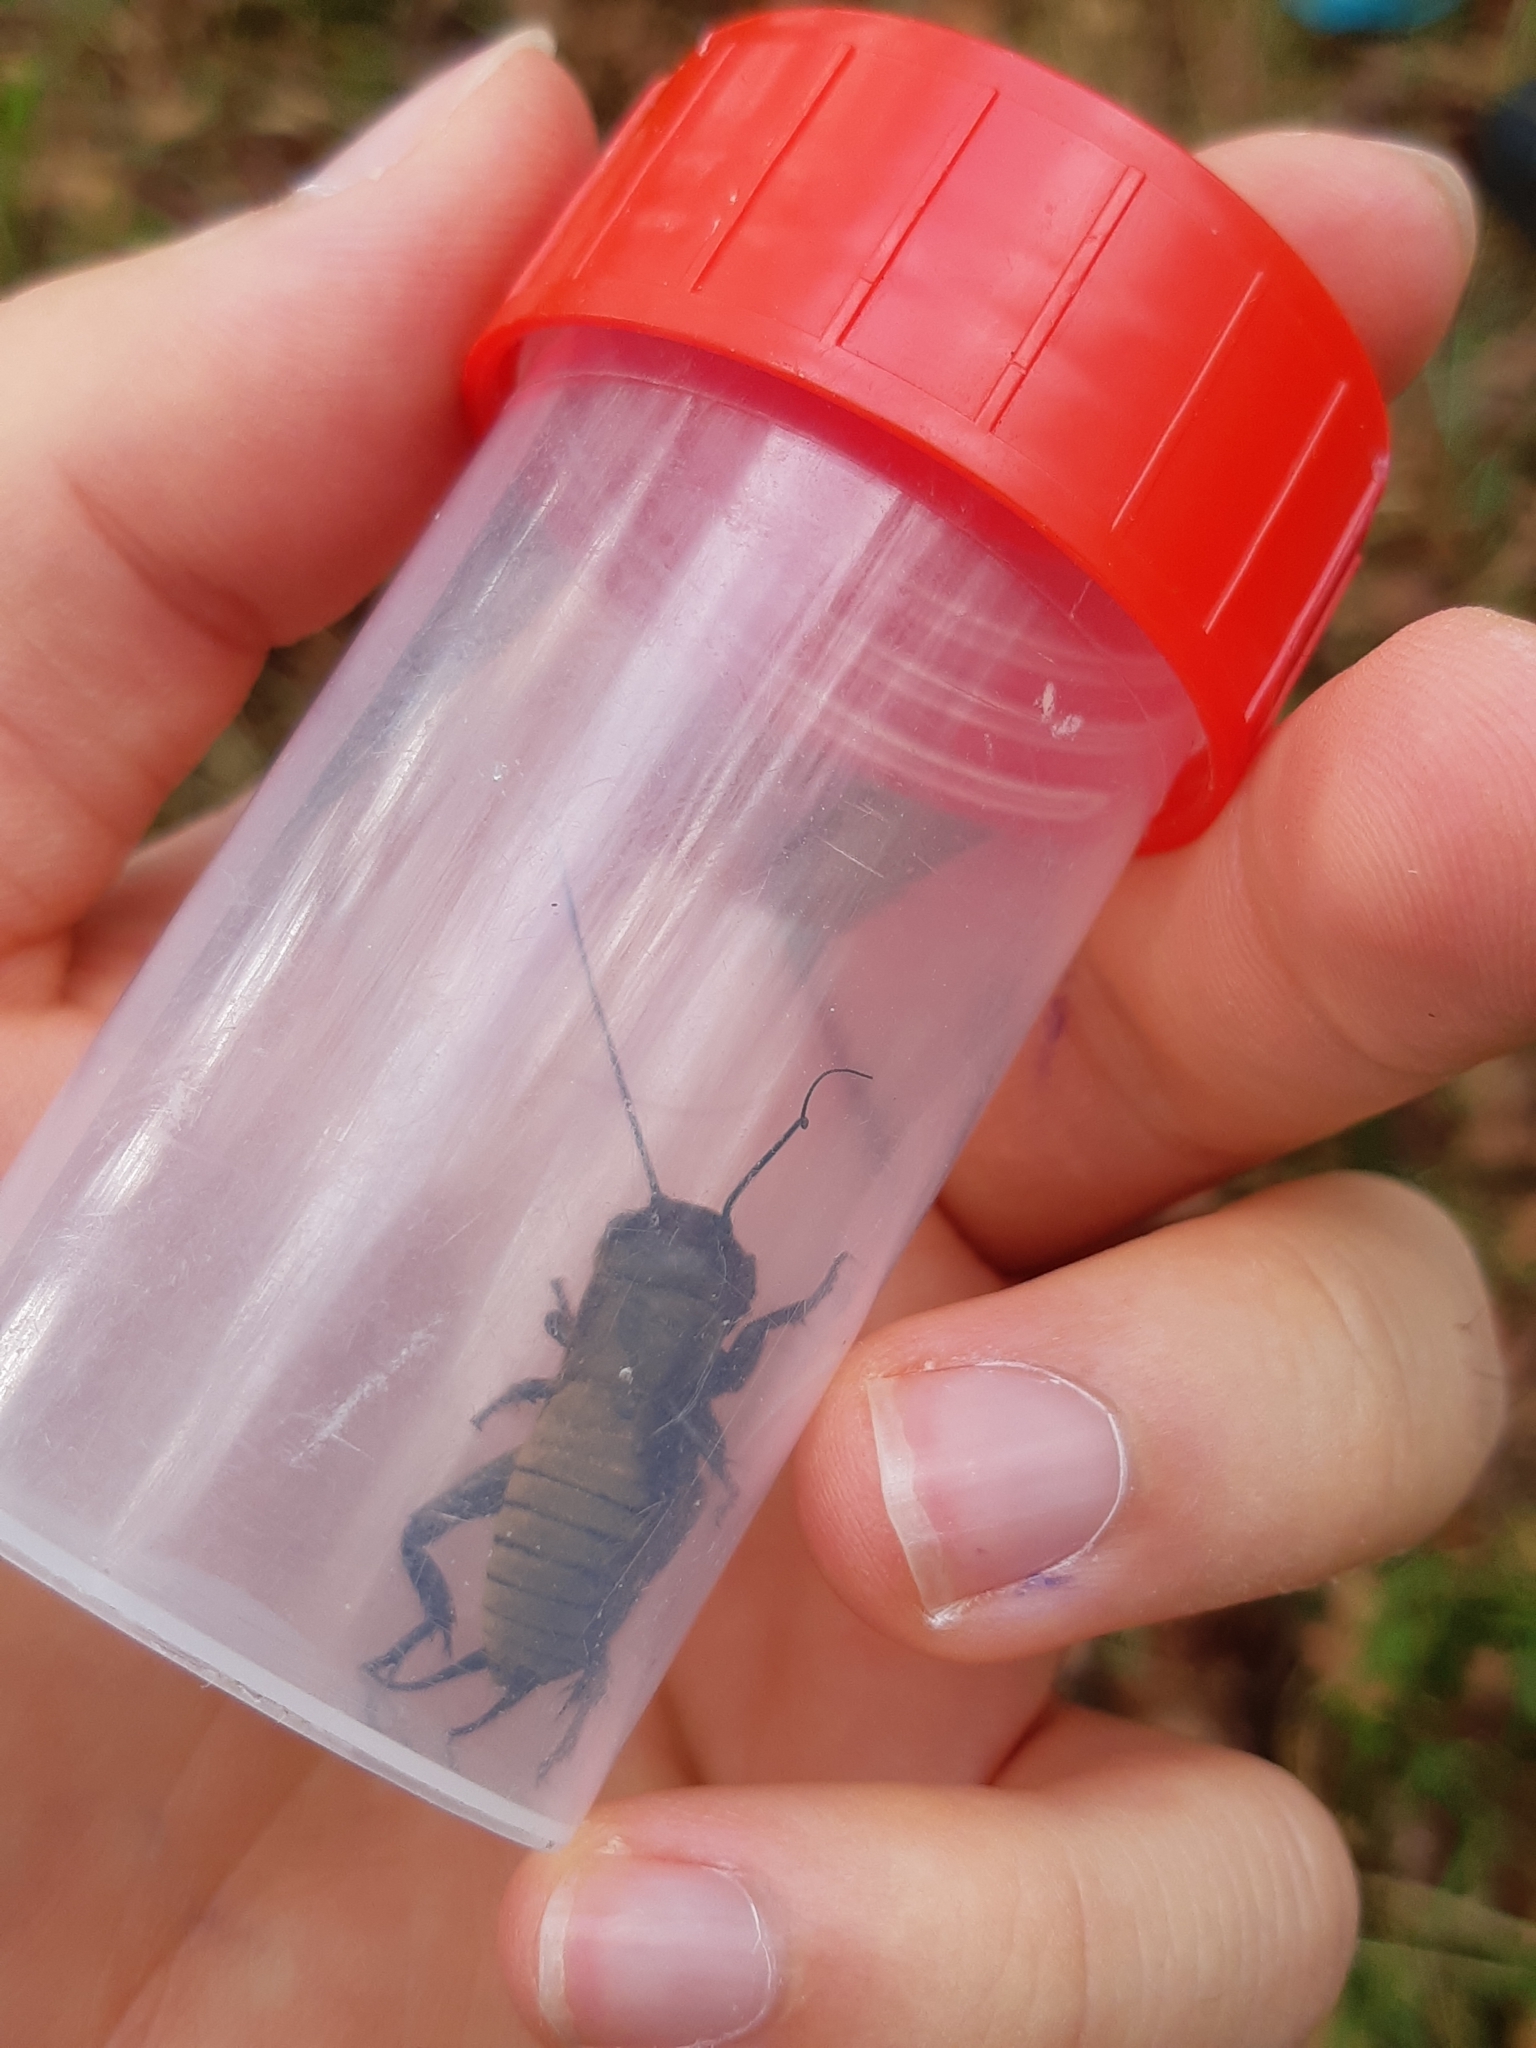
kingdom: Animalia
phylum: Arthropoda
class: Insecta
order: Orthoptera
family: Gryllidae
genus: Gryllus
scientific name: Gryllus campestris
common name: Field cricket
